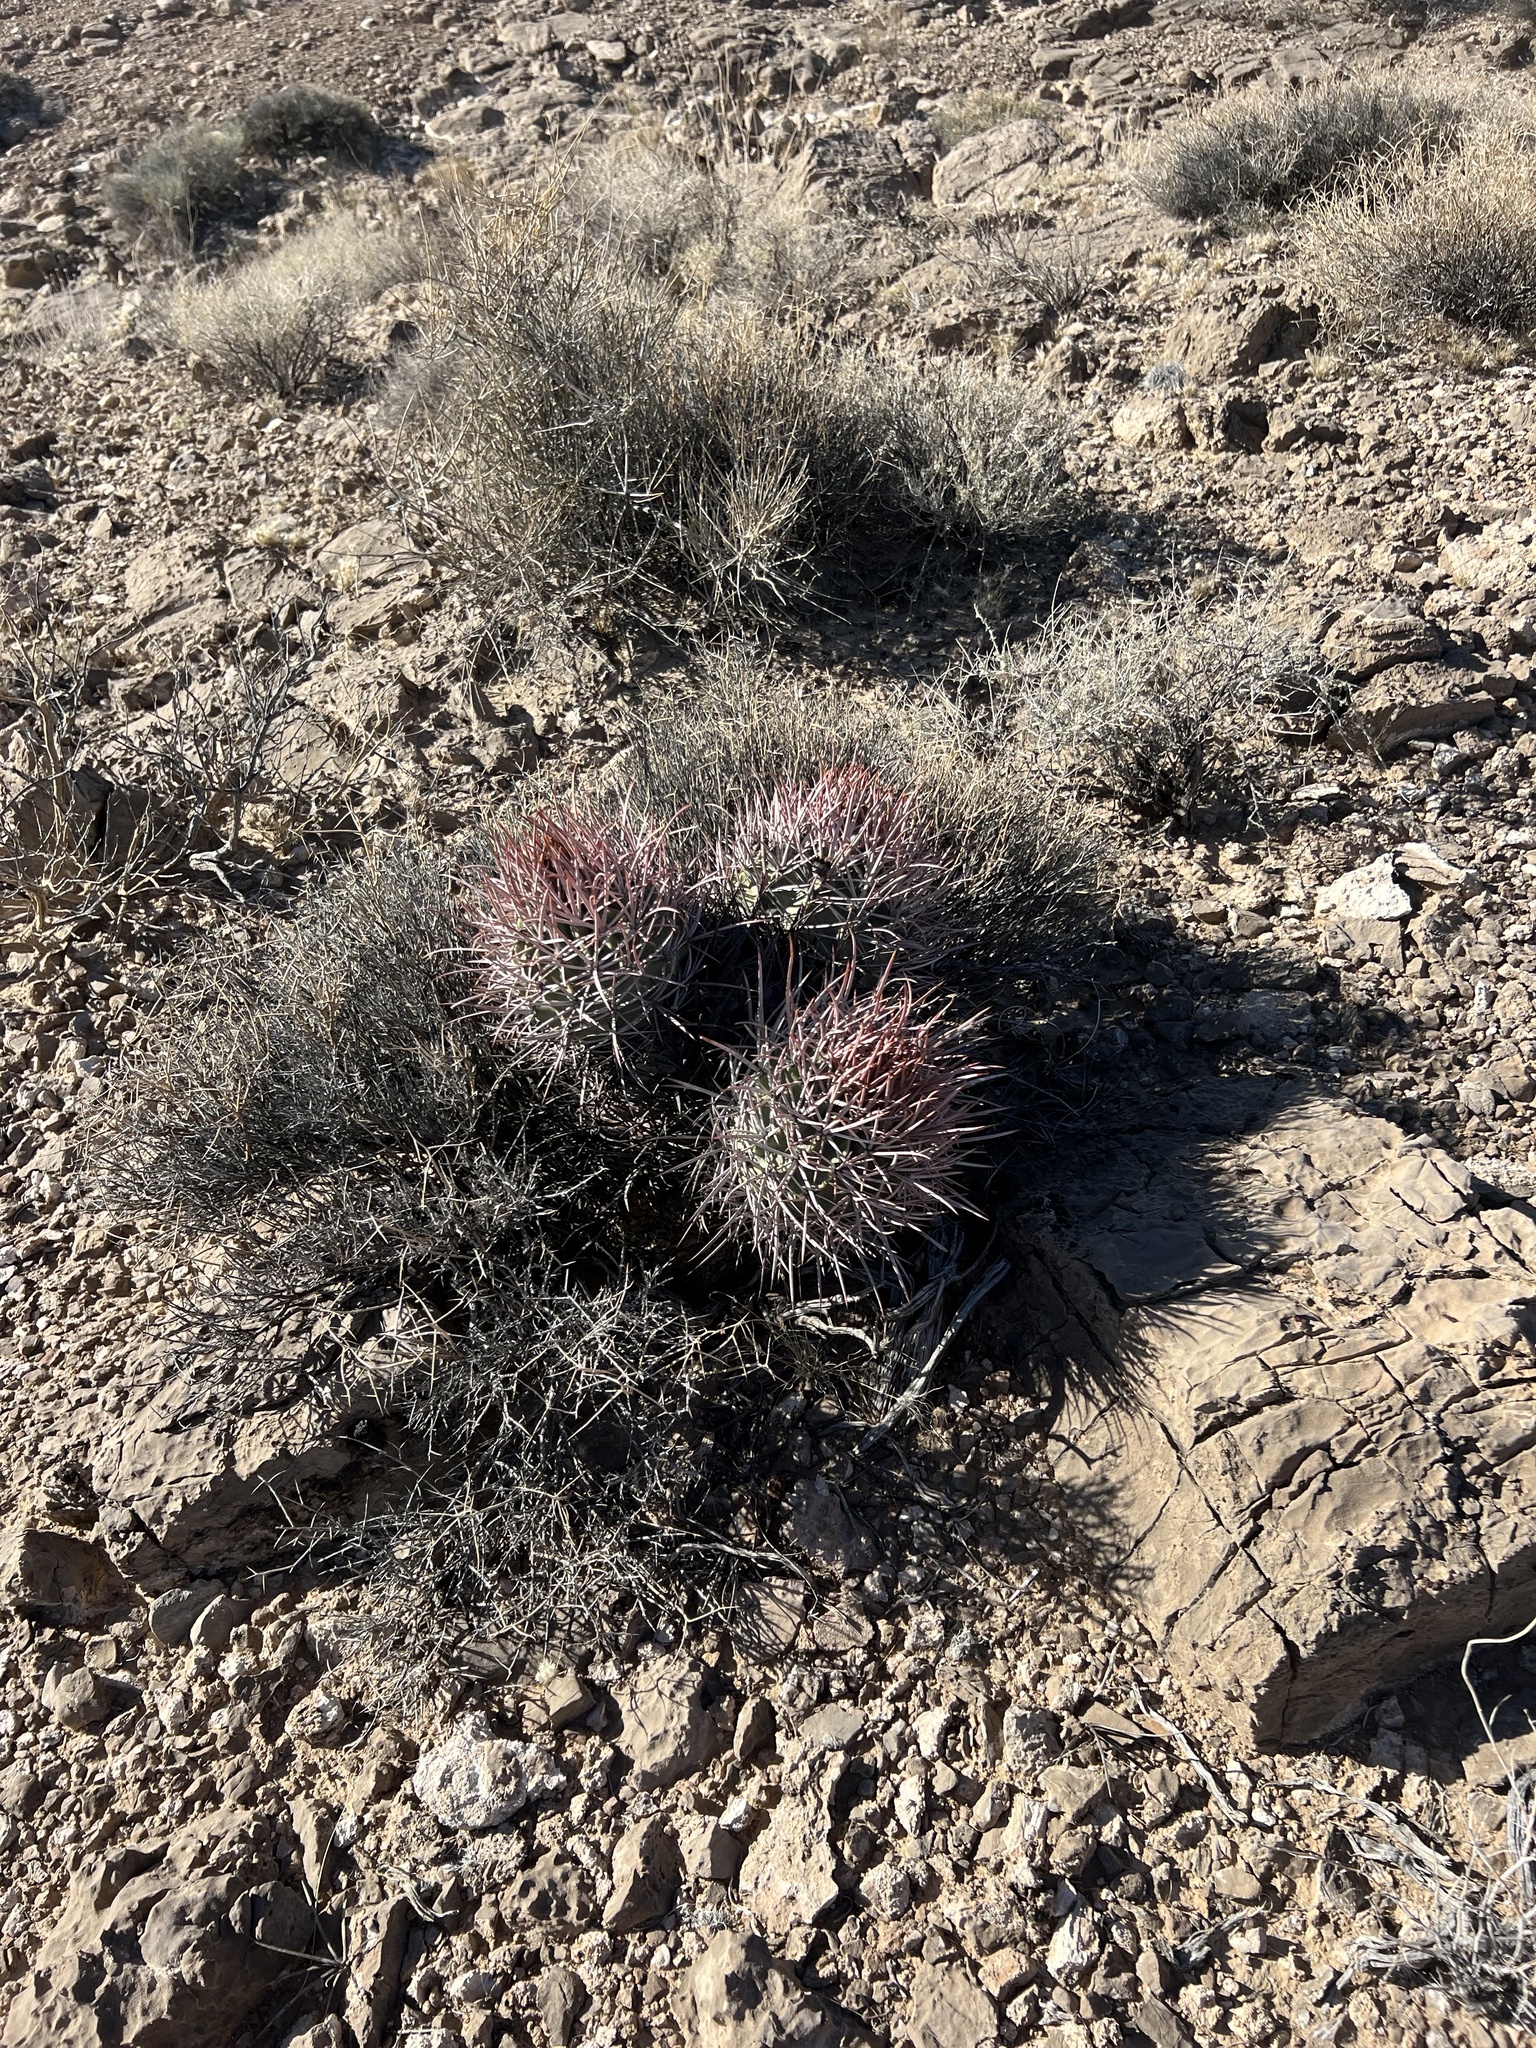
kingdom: Plantae
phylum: Tracheophyta
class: Magnoliopsida
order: Caryophyllales
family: Cactaceae
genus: Echinocactus
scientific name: Echinocactus polycephalus
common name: Cottontop cactus
